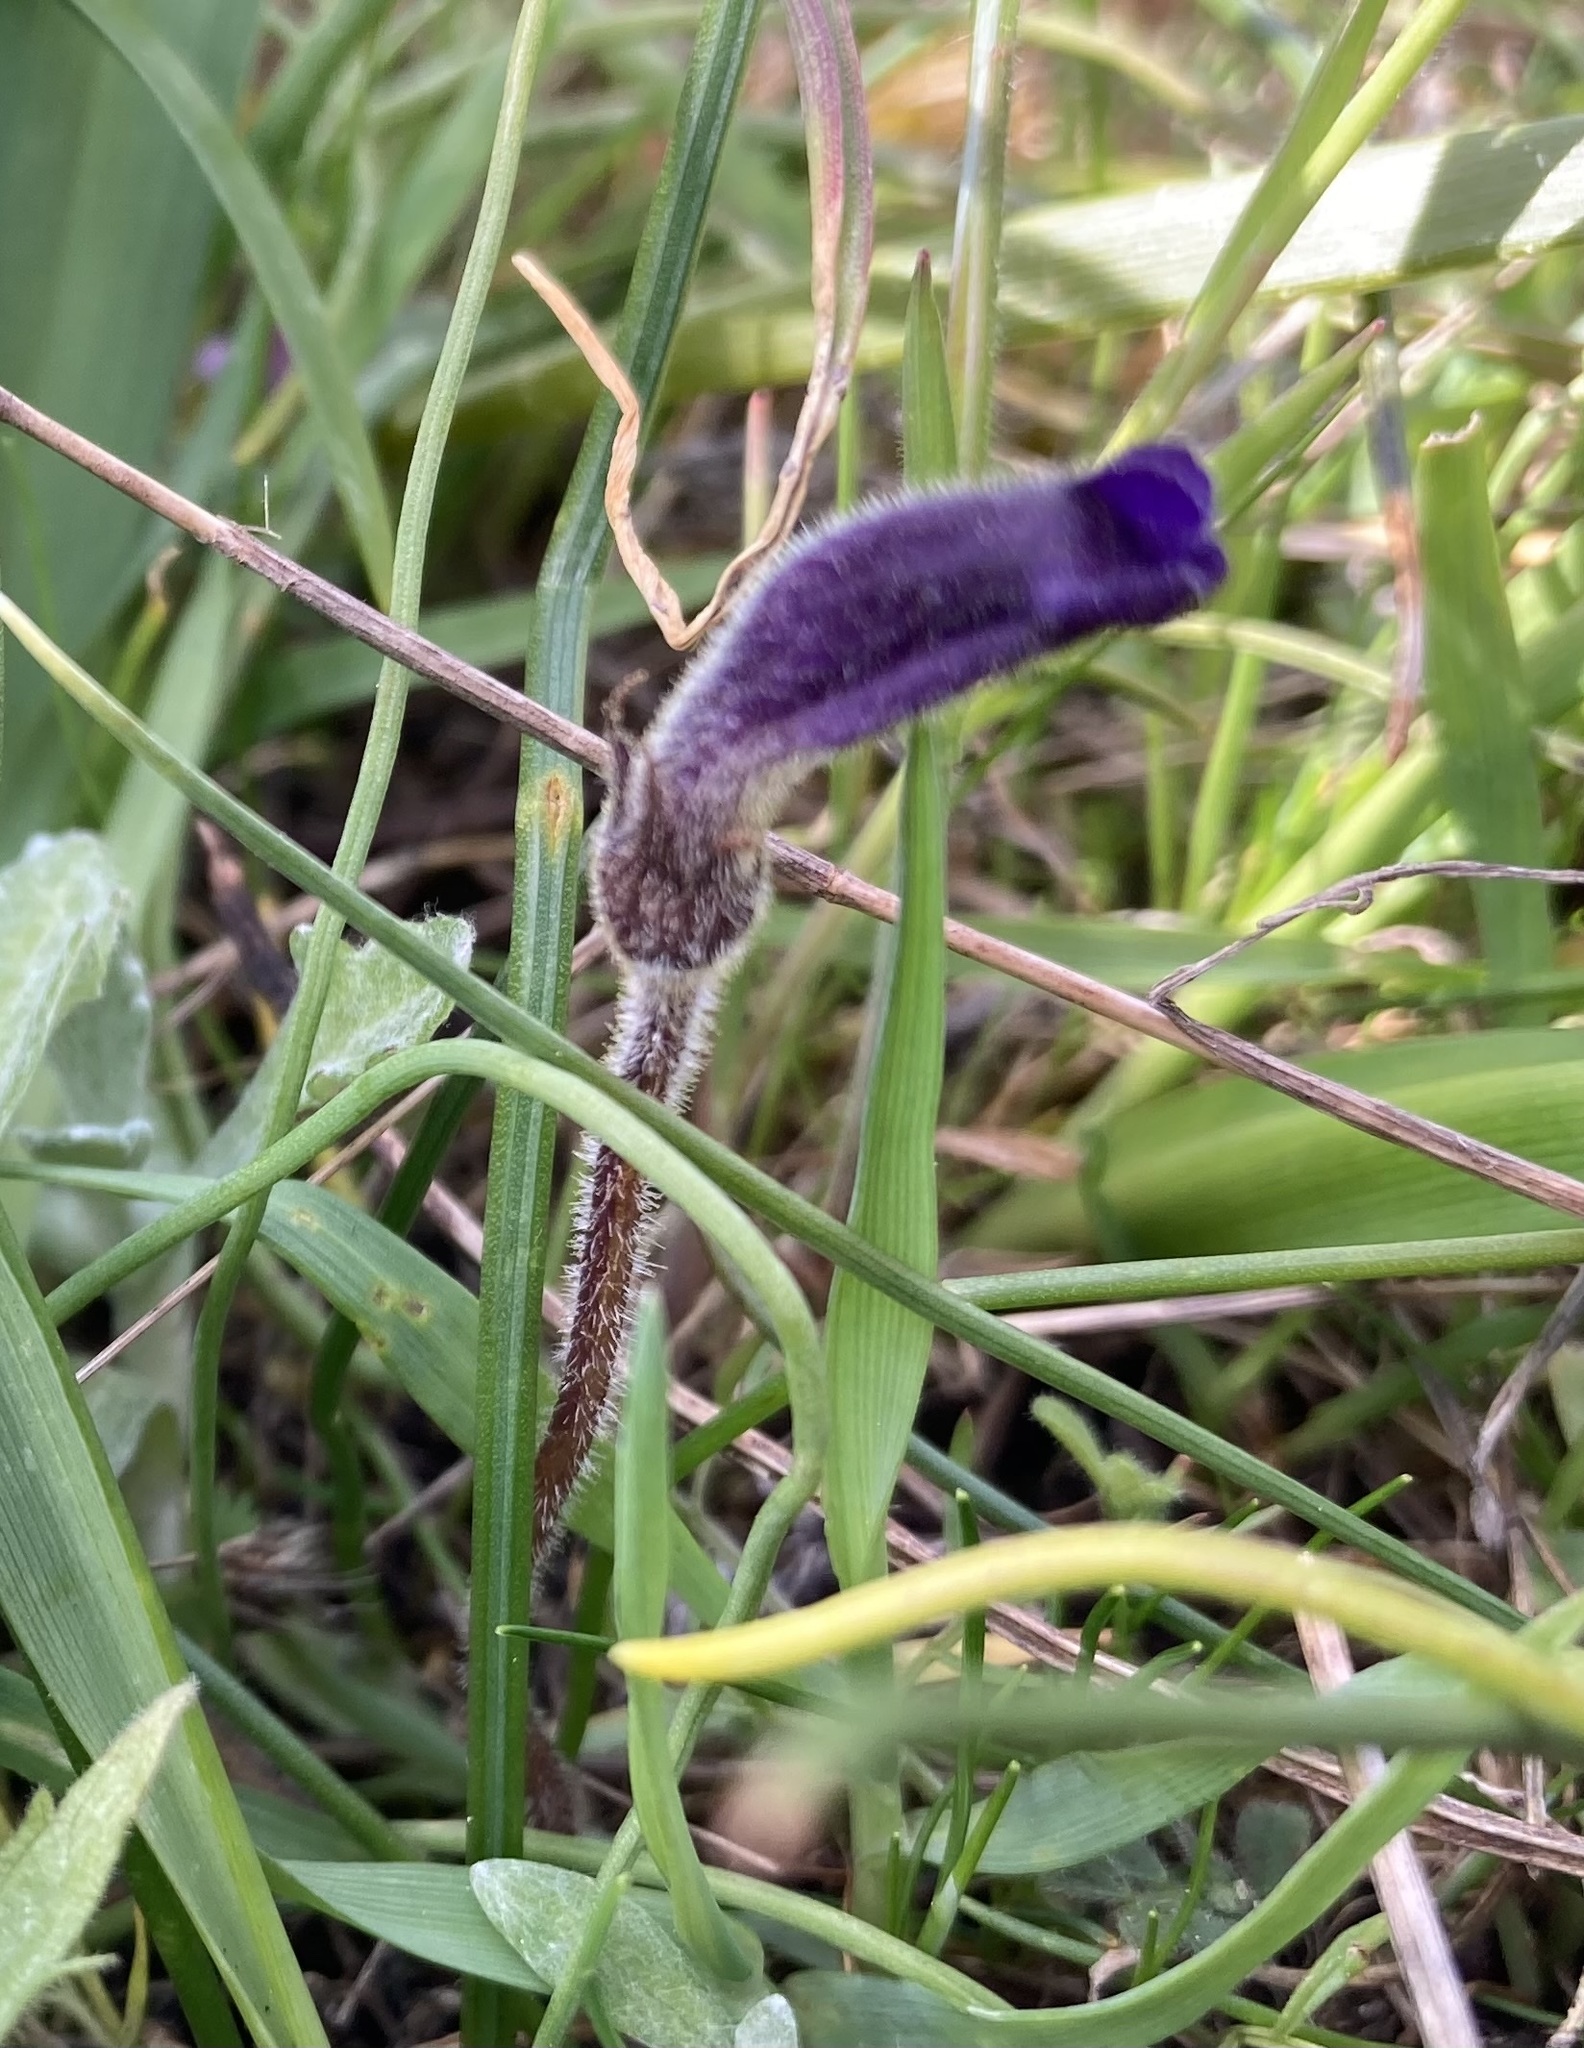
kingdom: Plantae
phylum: Tracheophyta
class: Magnoliopsida
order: Lamiales
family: Orobanchaceae
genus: Aphyllon
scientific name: Aphyllon uniflorum
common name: One-flowered broomrape
